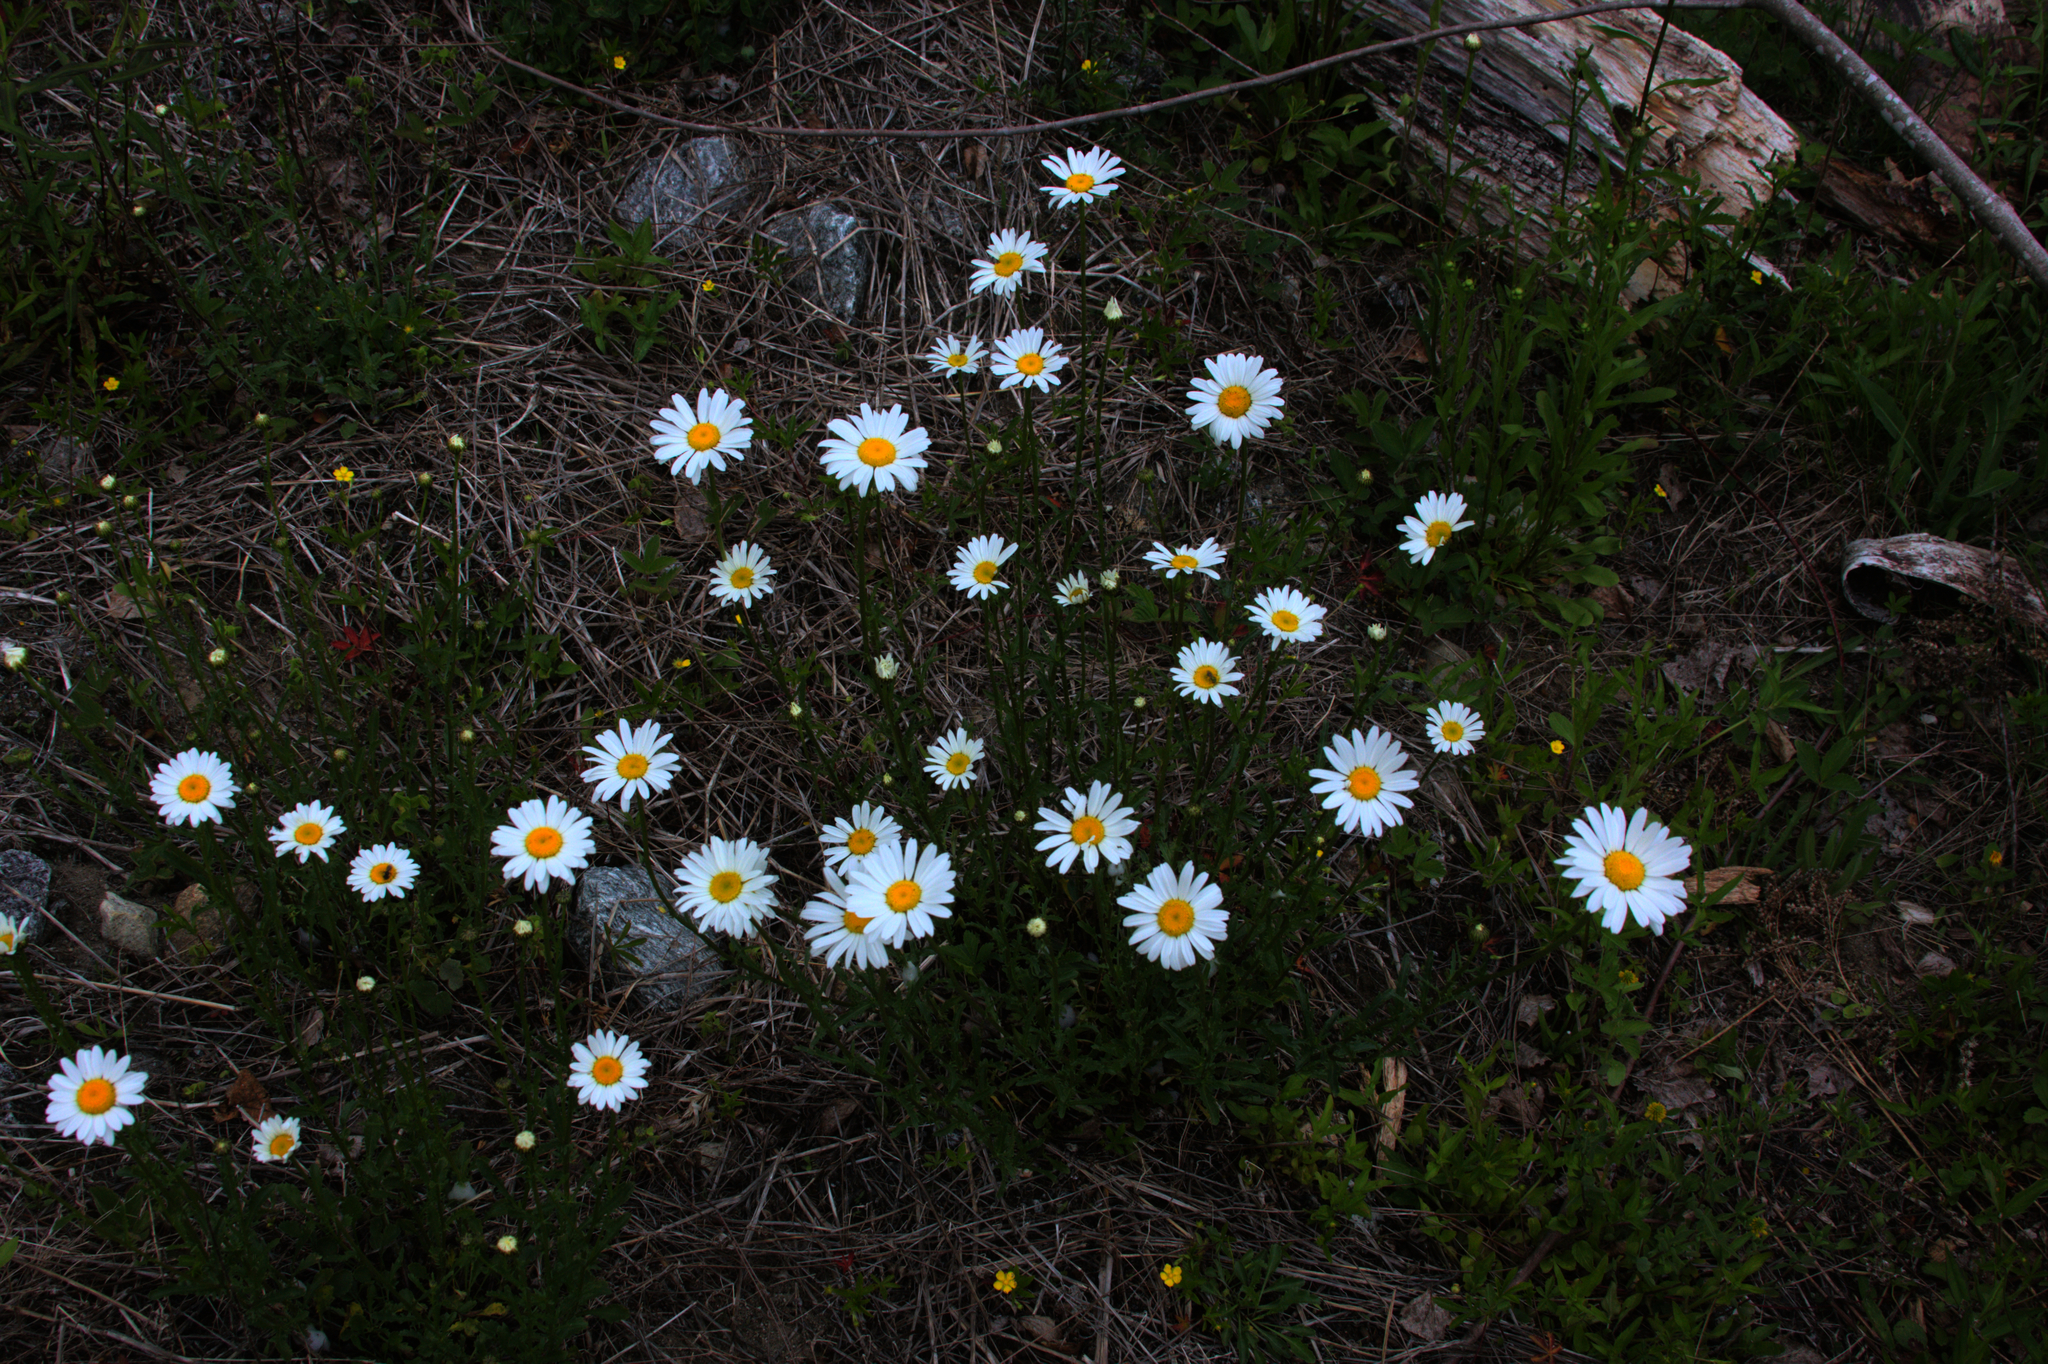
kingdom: Plantae
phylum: Tracheophyta
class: Magnoliopsida
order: Asterales
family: Asteraceae
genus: Leucanthemum
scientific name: Leucanthemum vulgare
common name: Oxeye daisy
